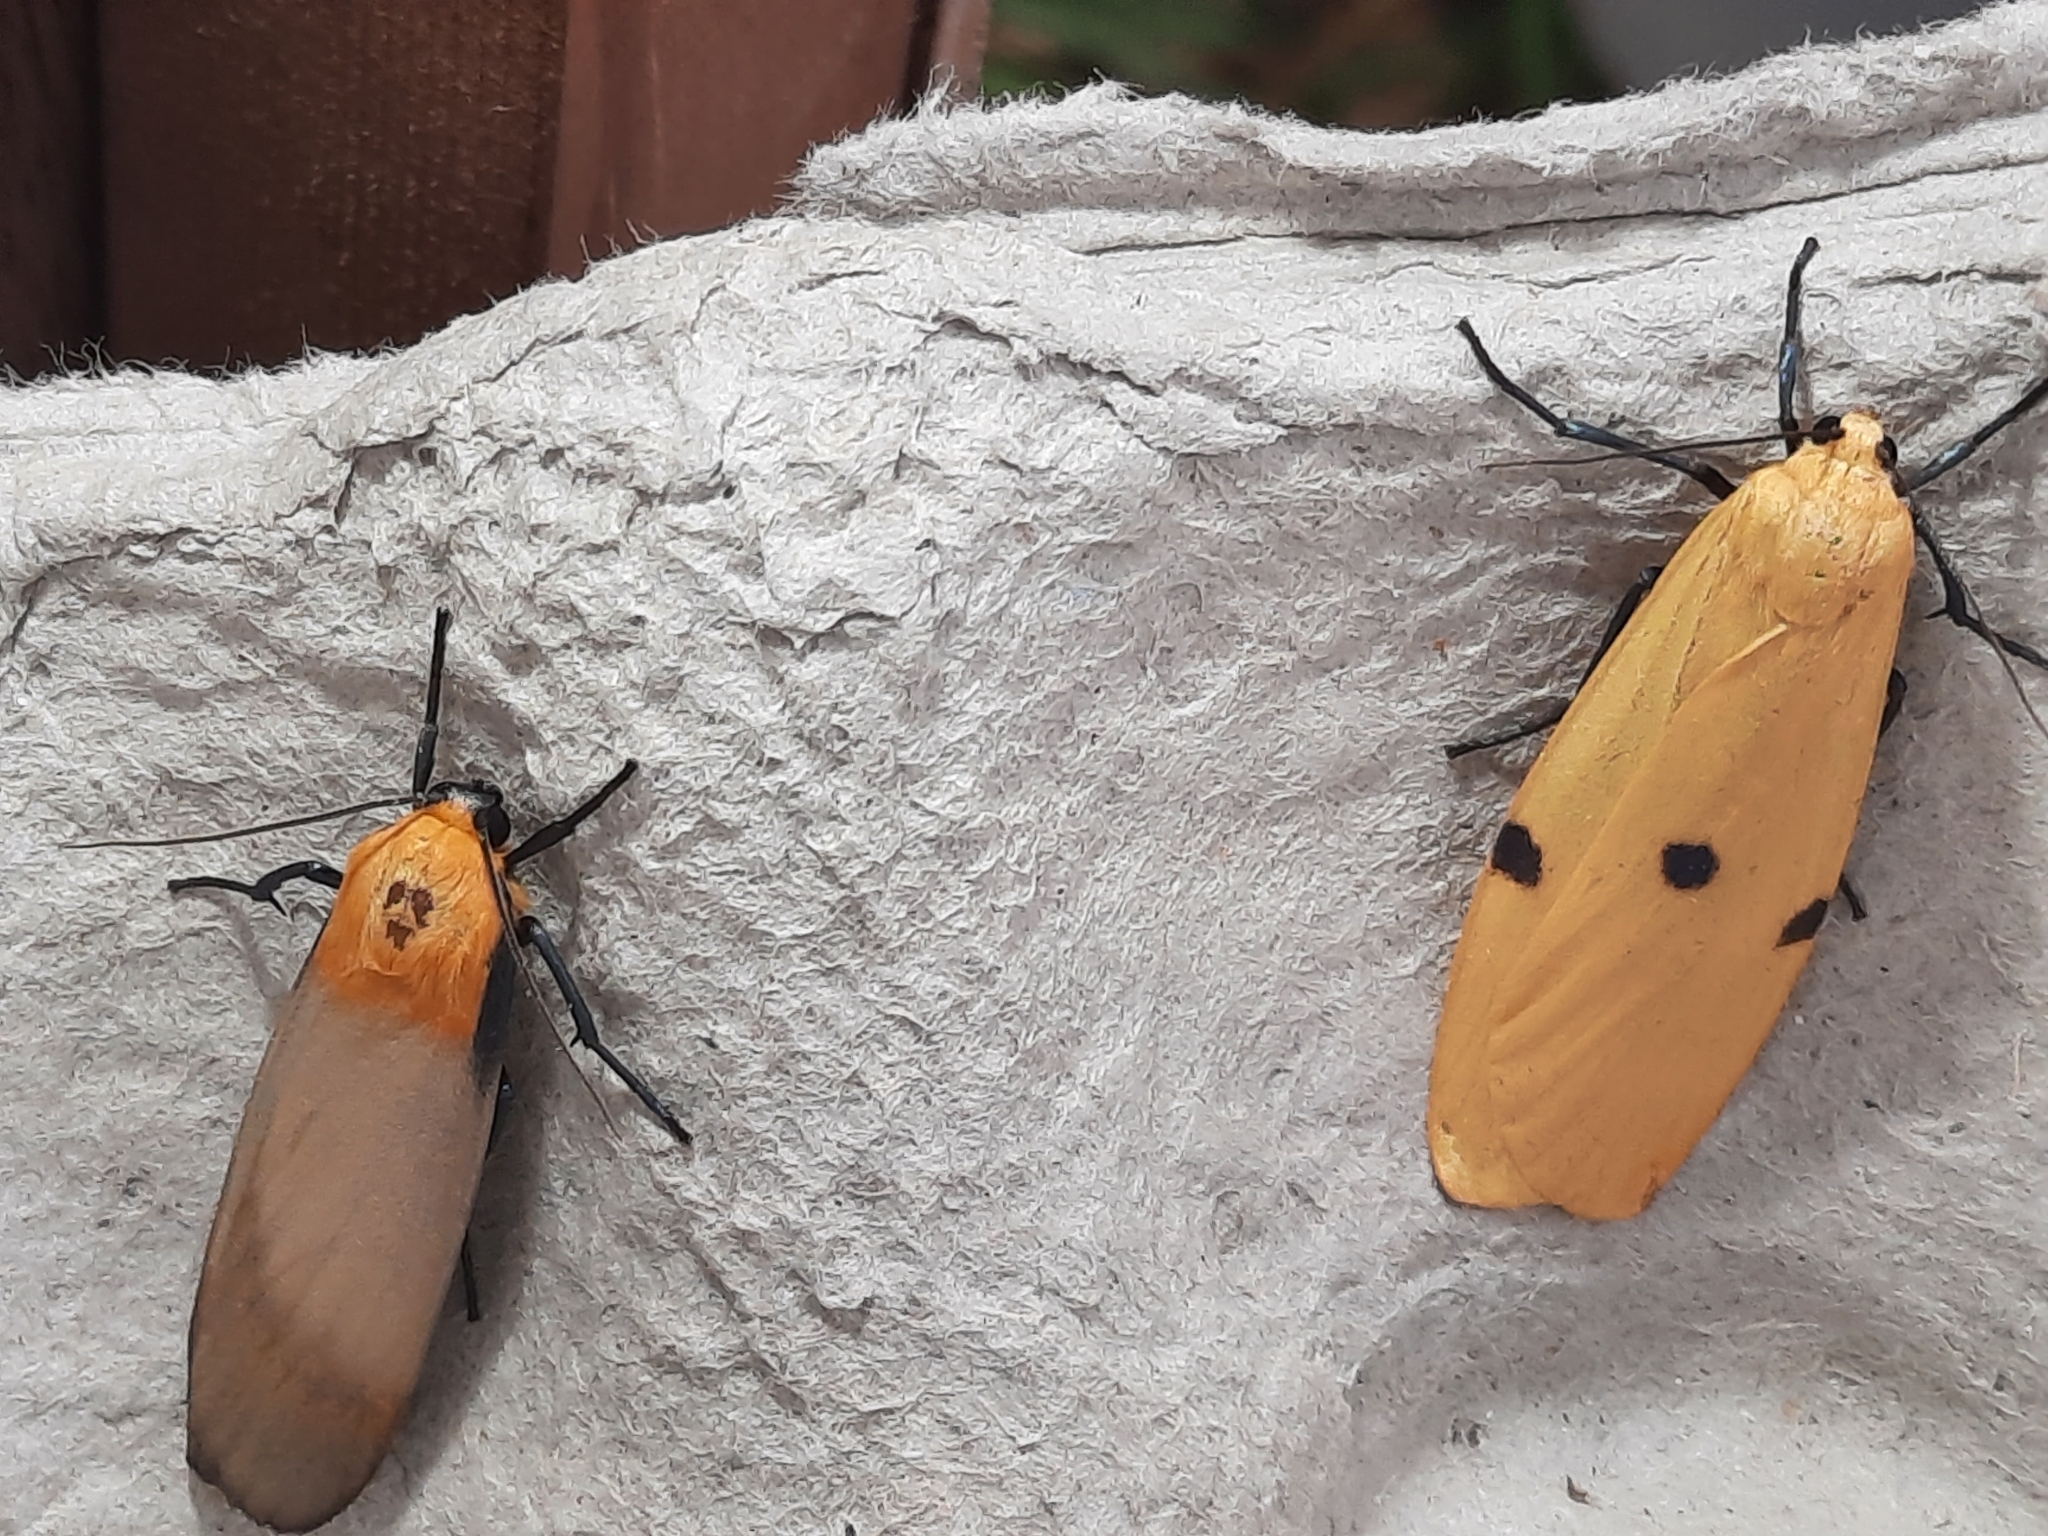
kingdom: Animalia
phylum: Arthropoda
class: Insecta
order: Lepidoptera
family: Erebidae
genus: Lithosia
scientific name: Lithosia quadra
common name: Four-spotted footman
